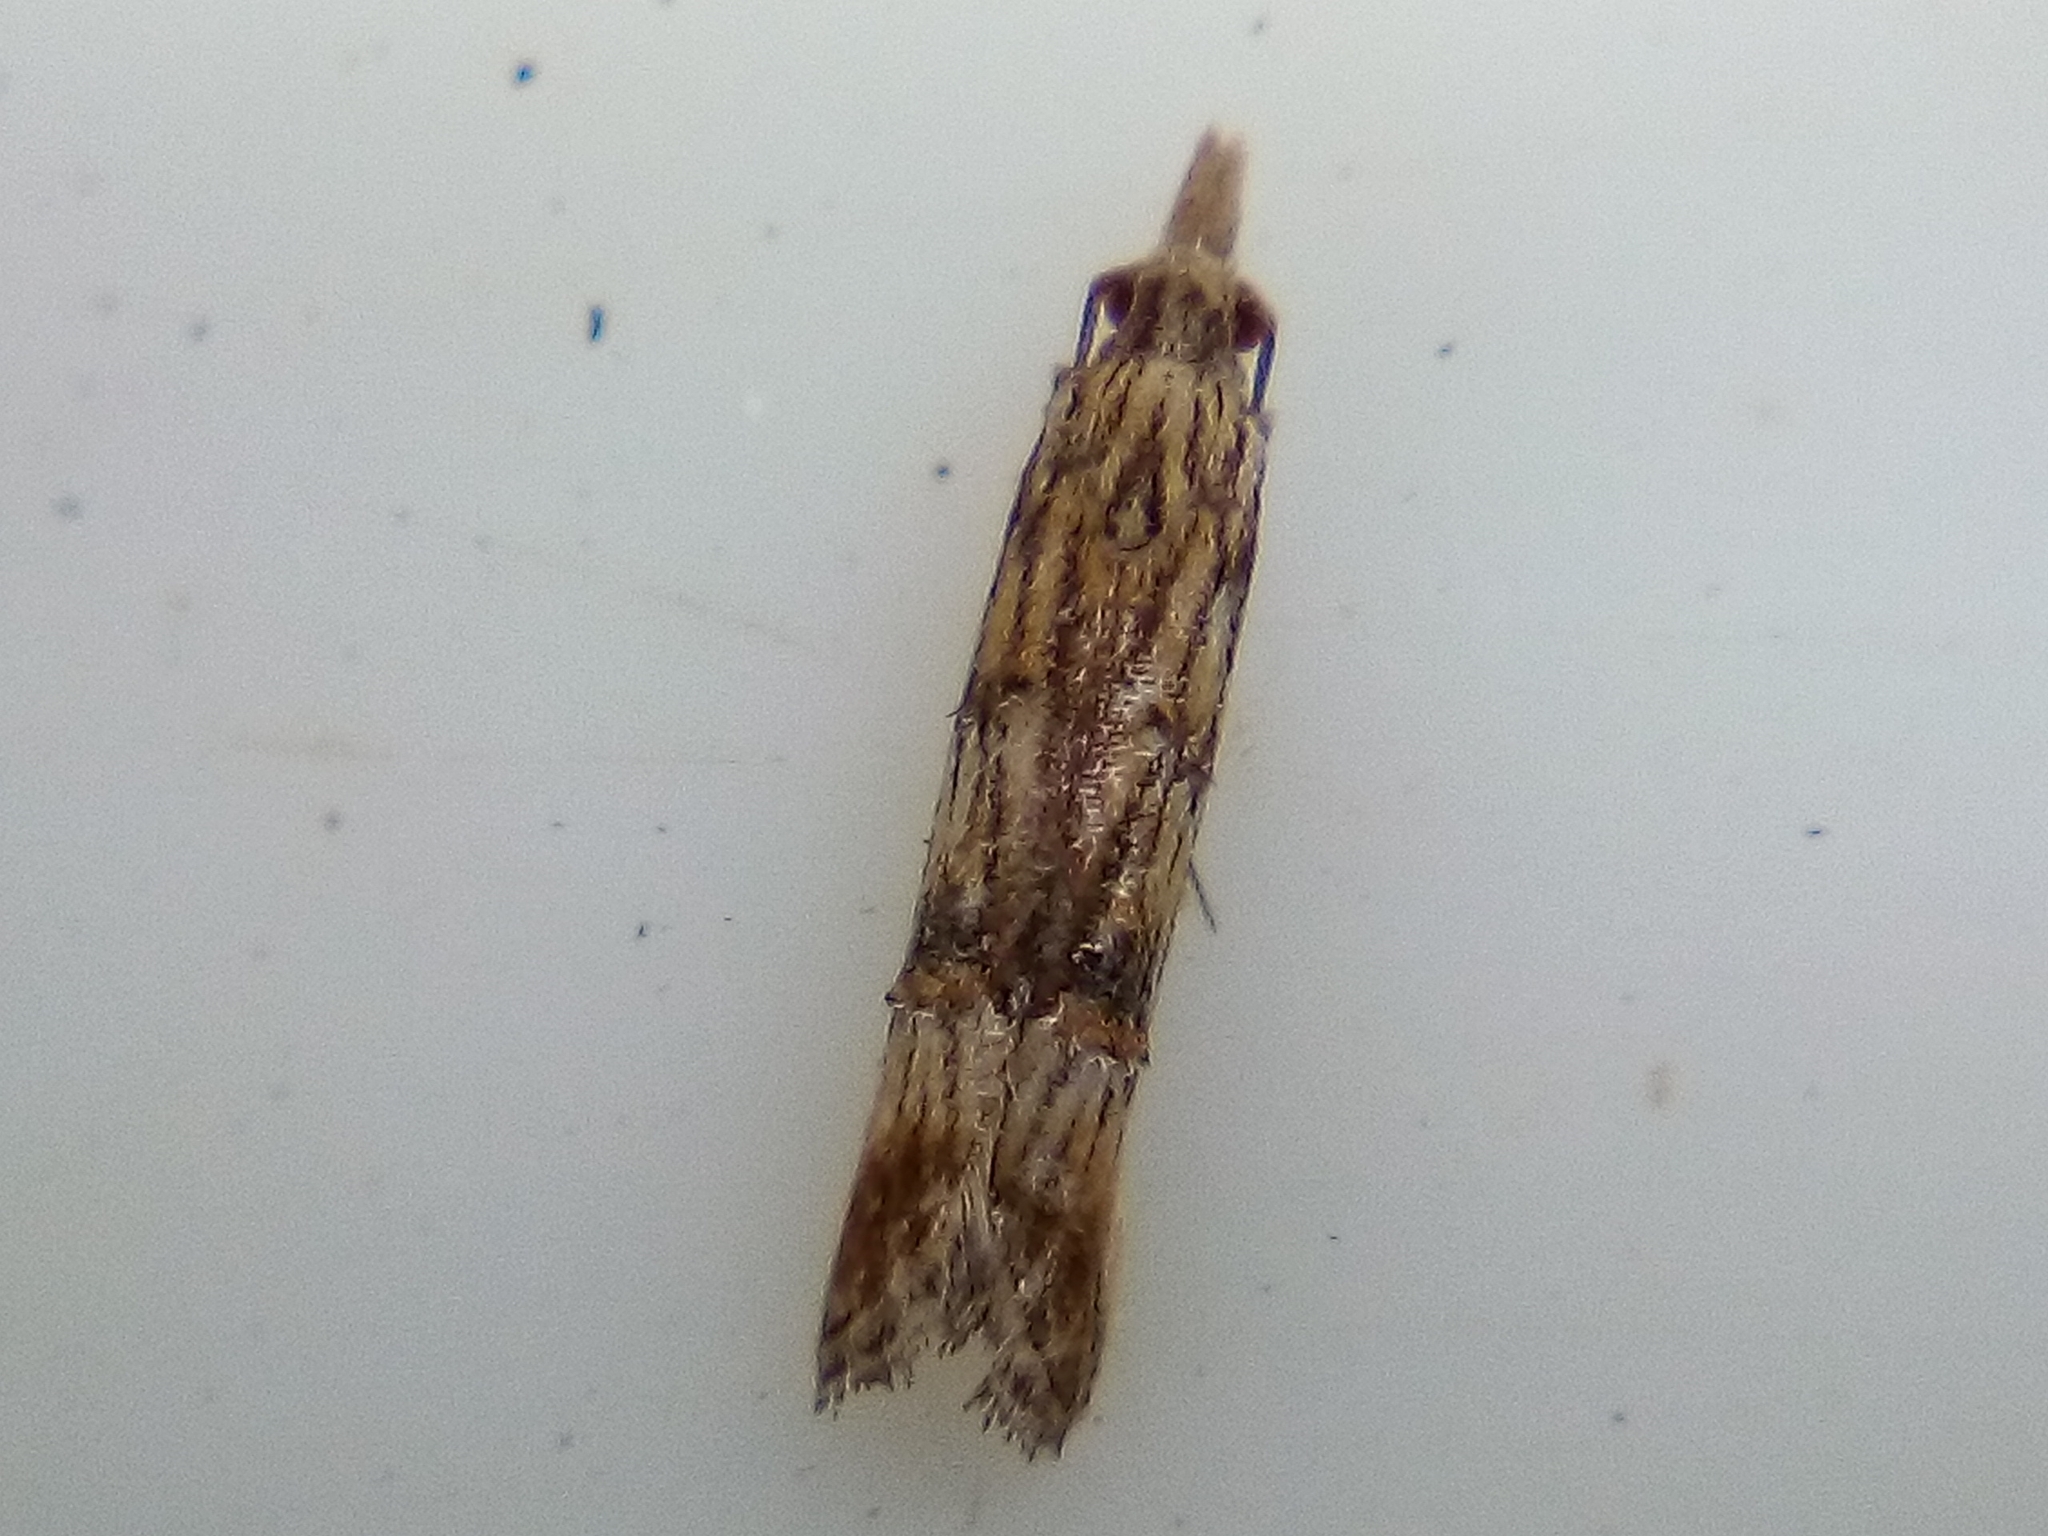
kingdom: Animalia
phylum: Arthropoda
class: Insecta
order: Lepidoptera
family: Carposinidae
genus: Carposina
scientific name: Carposina neurophorella
